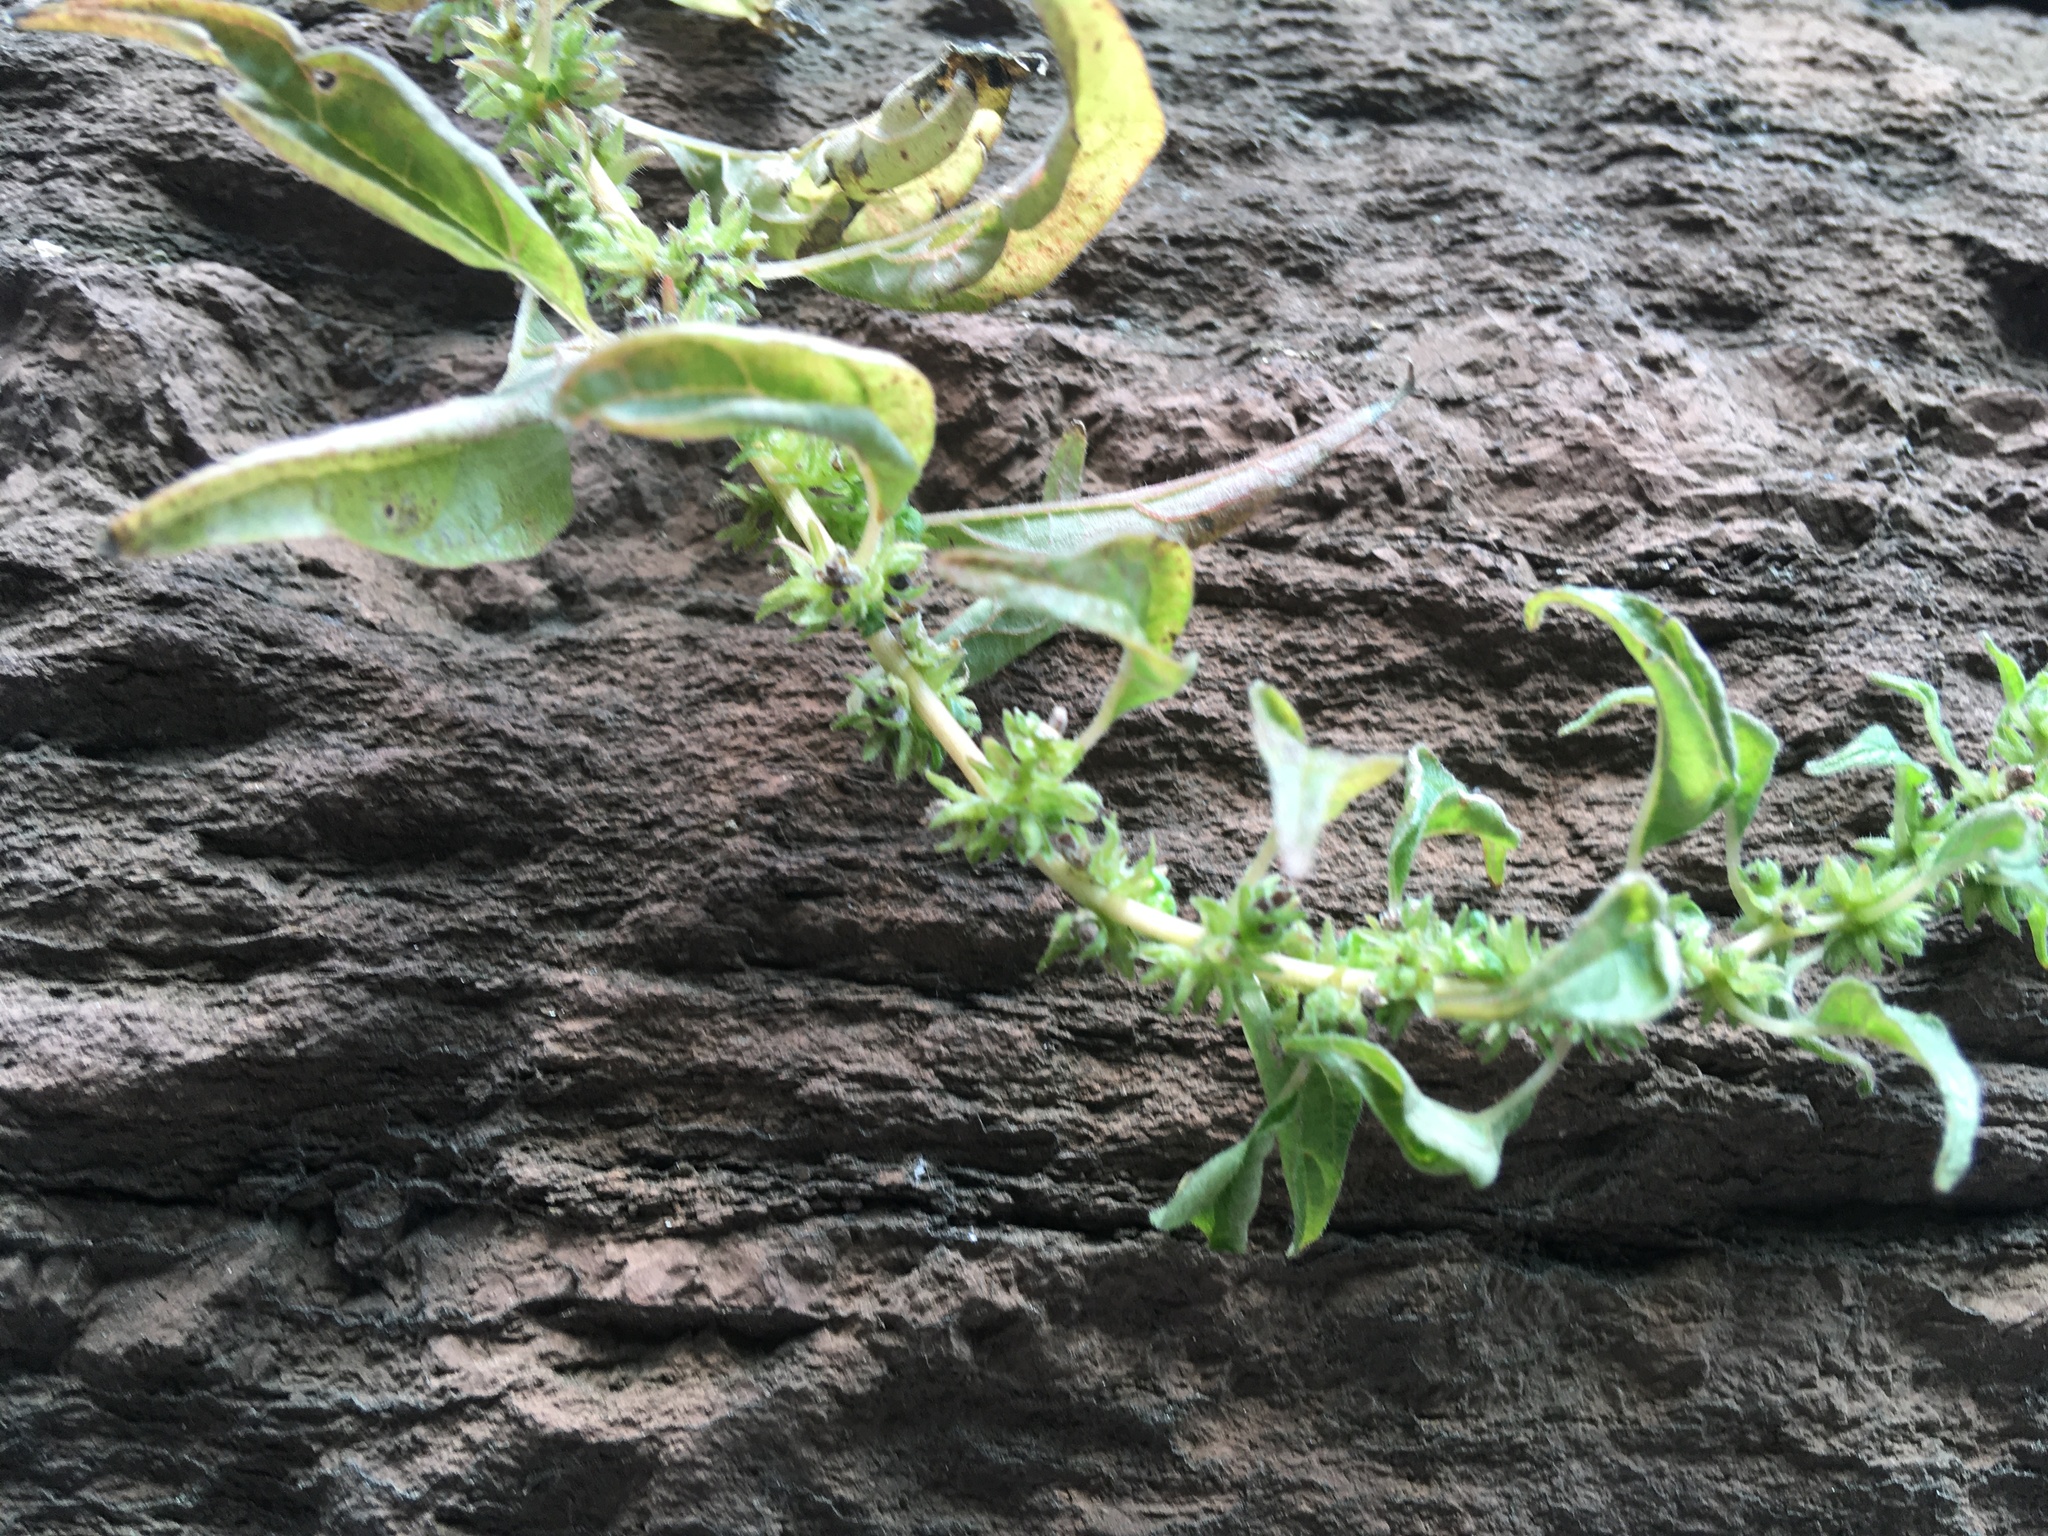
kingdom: Plantae
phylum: Tracheophyta
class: Magnoliopsida
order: Rosales
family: Urticaceae
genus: Parietaria
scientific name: Parietaria pensylvanica
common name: Pennsylvania pellitory
